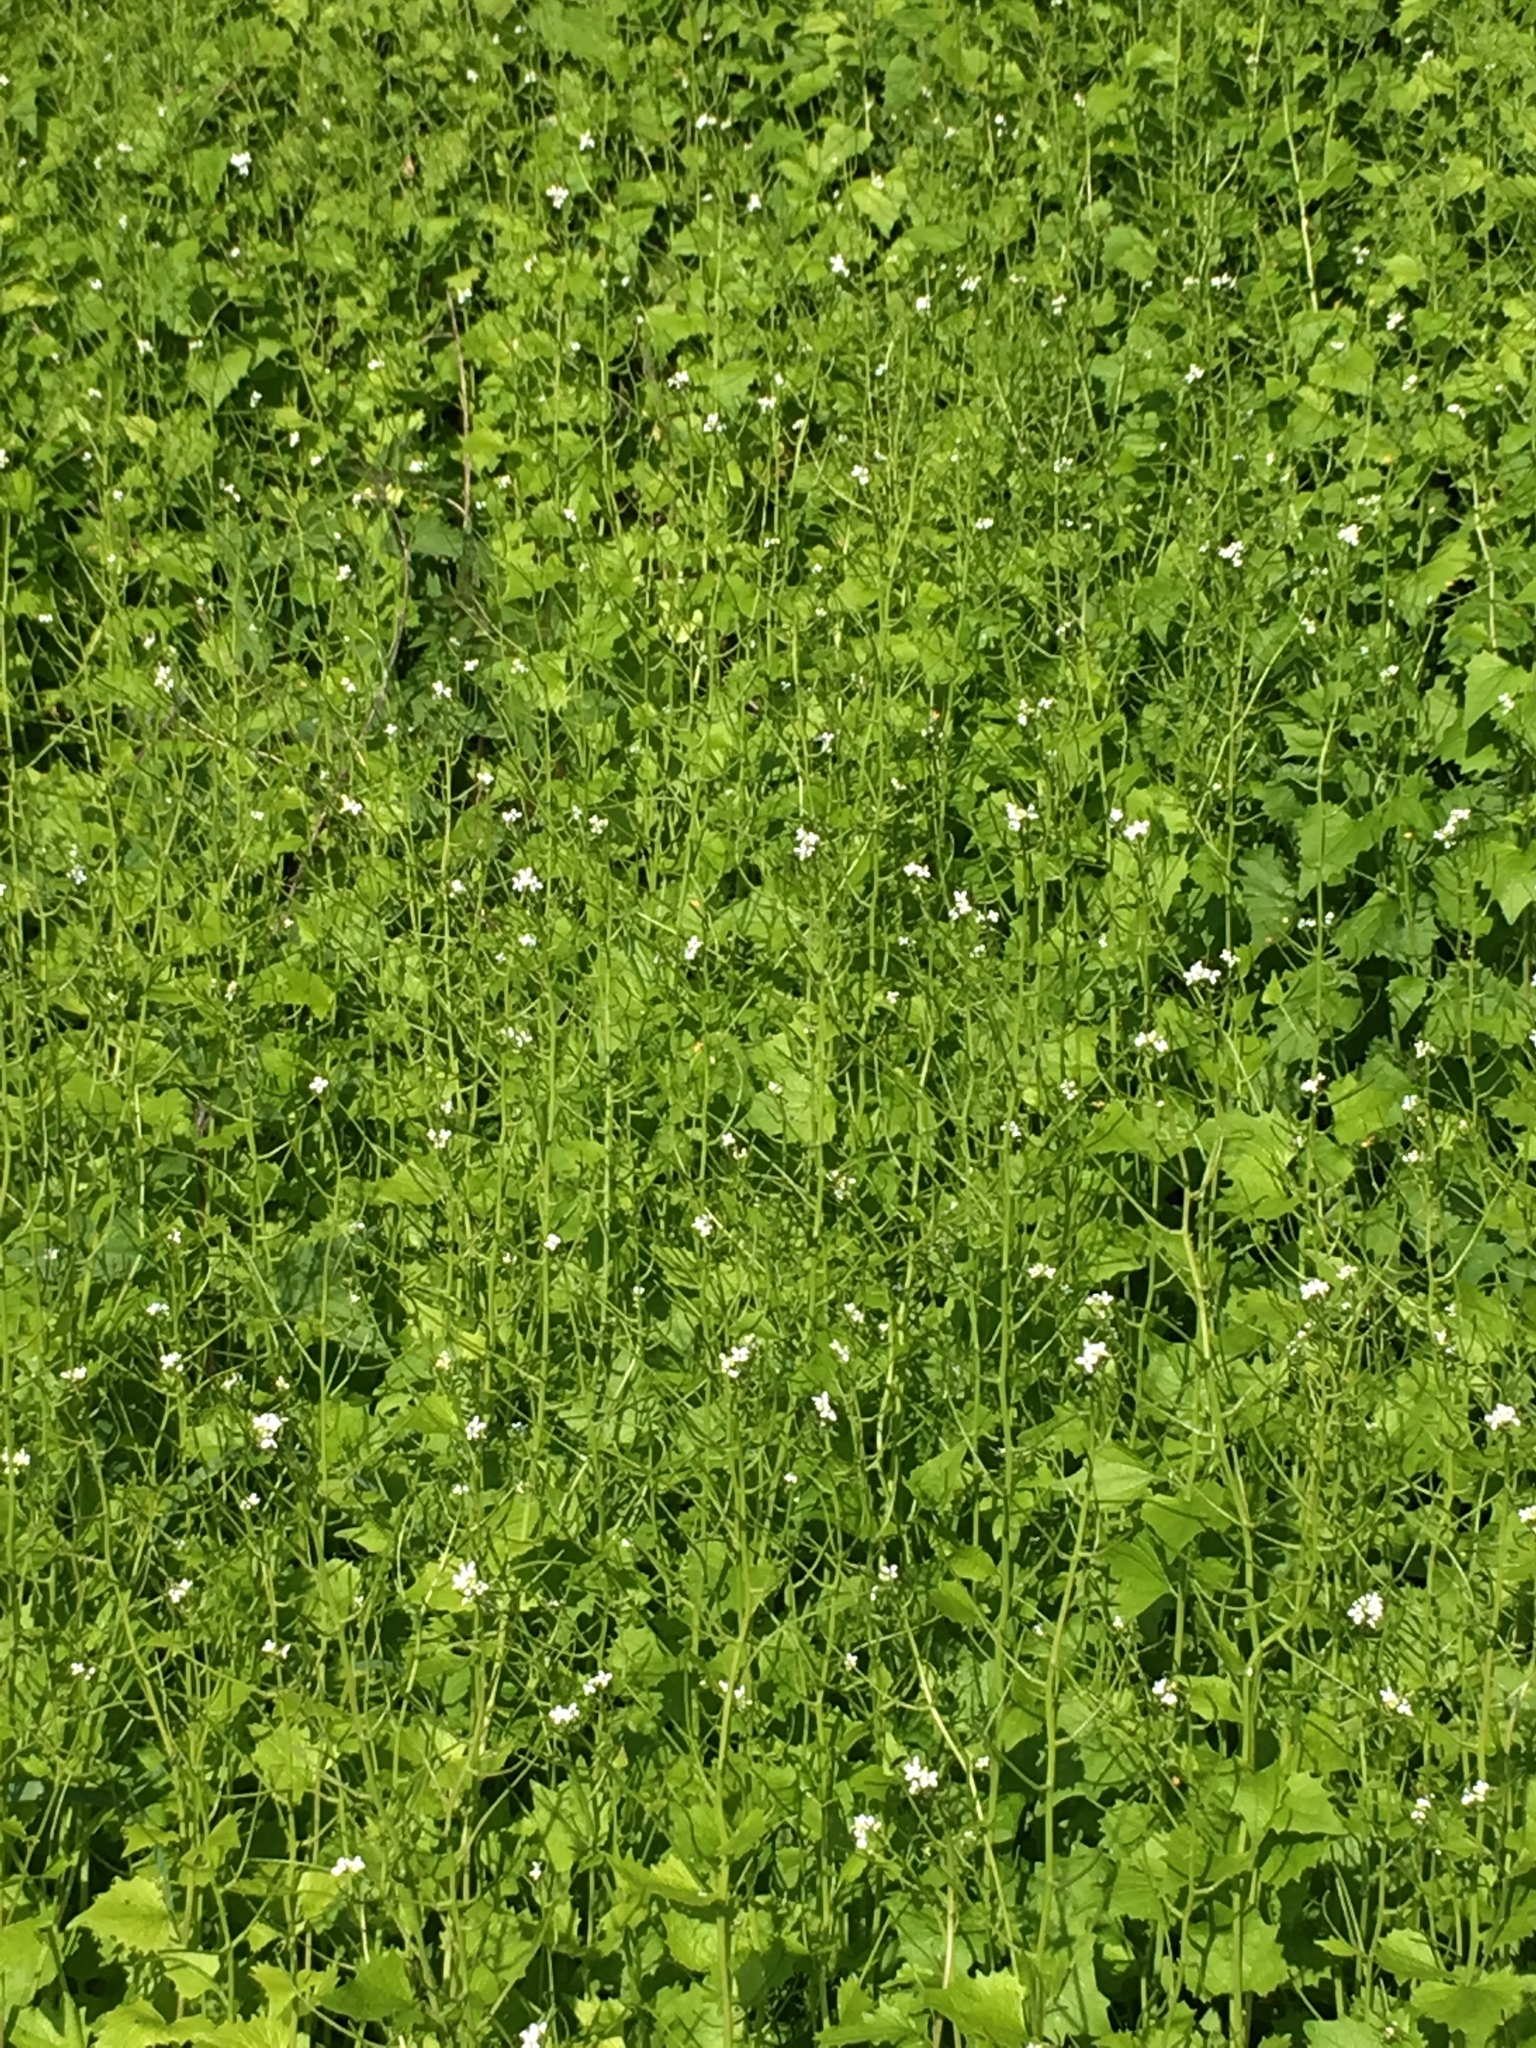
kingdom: Plantae
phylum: Tracheophyta
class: Magnoliopsida
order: Brassicales
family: Brassicaceae
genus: Alliaria
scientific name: Alliaria petiolata
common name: Garlic mustard
